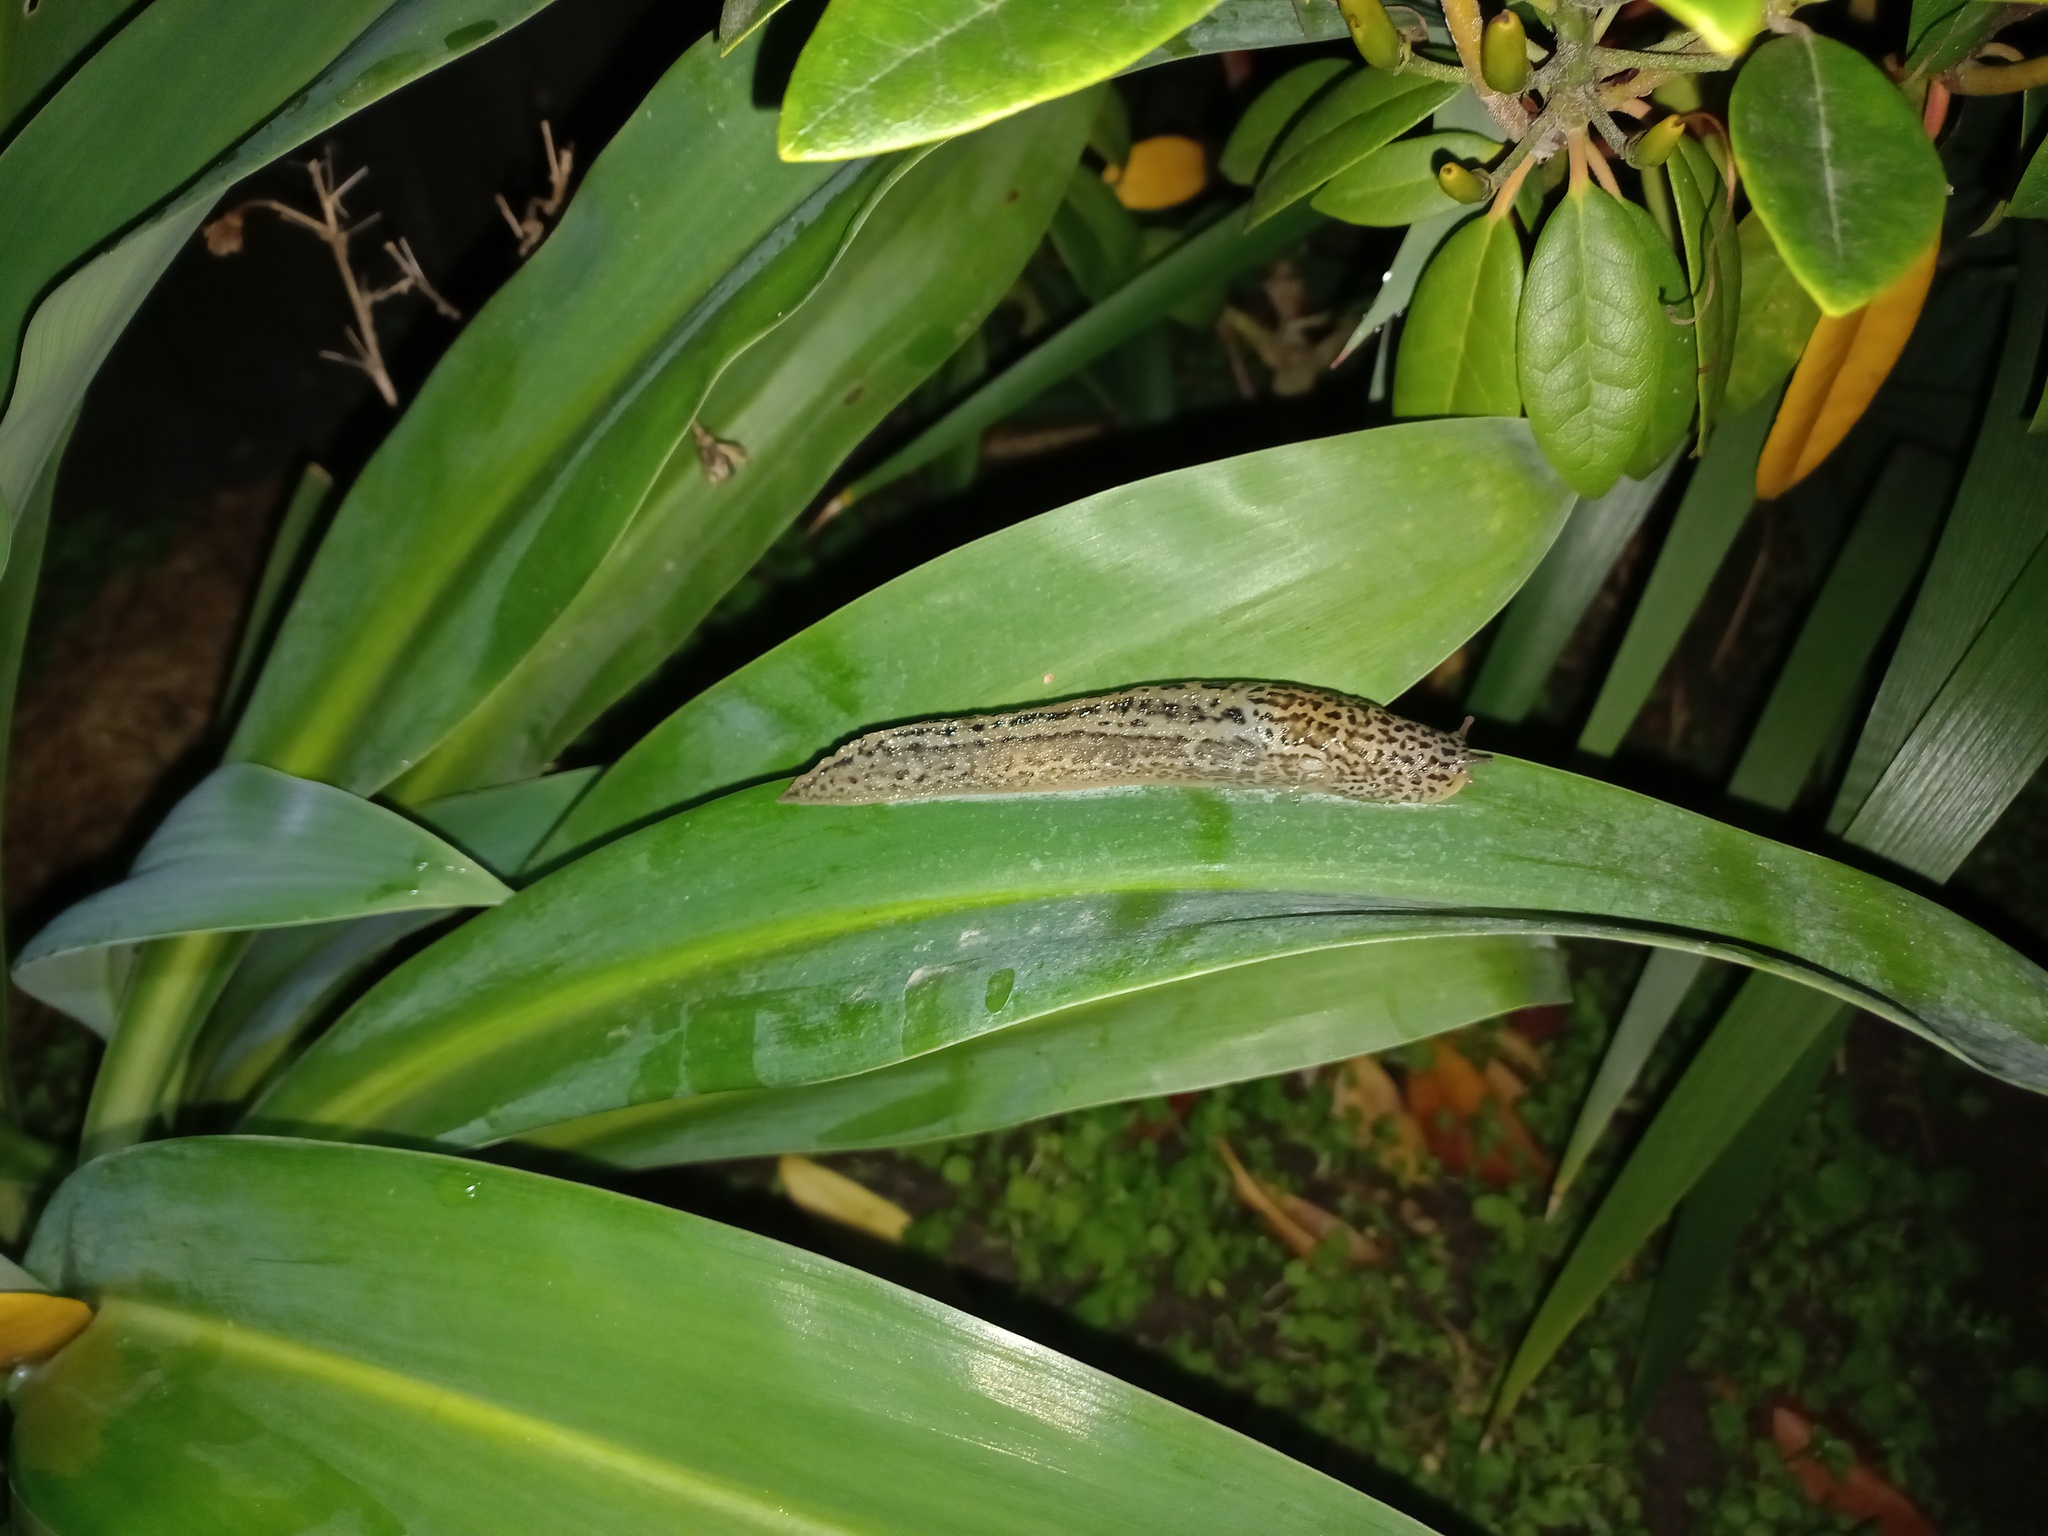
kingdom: Animalia
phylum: Mollusca
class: Gastropoda
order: Stylommatophora
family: Limacidae
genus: Limax
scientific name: Limax maximus
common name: Great grey slug
